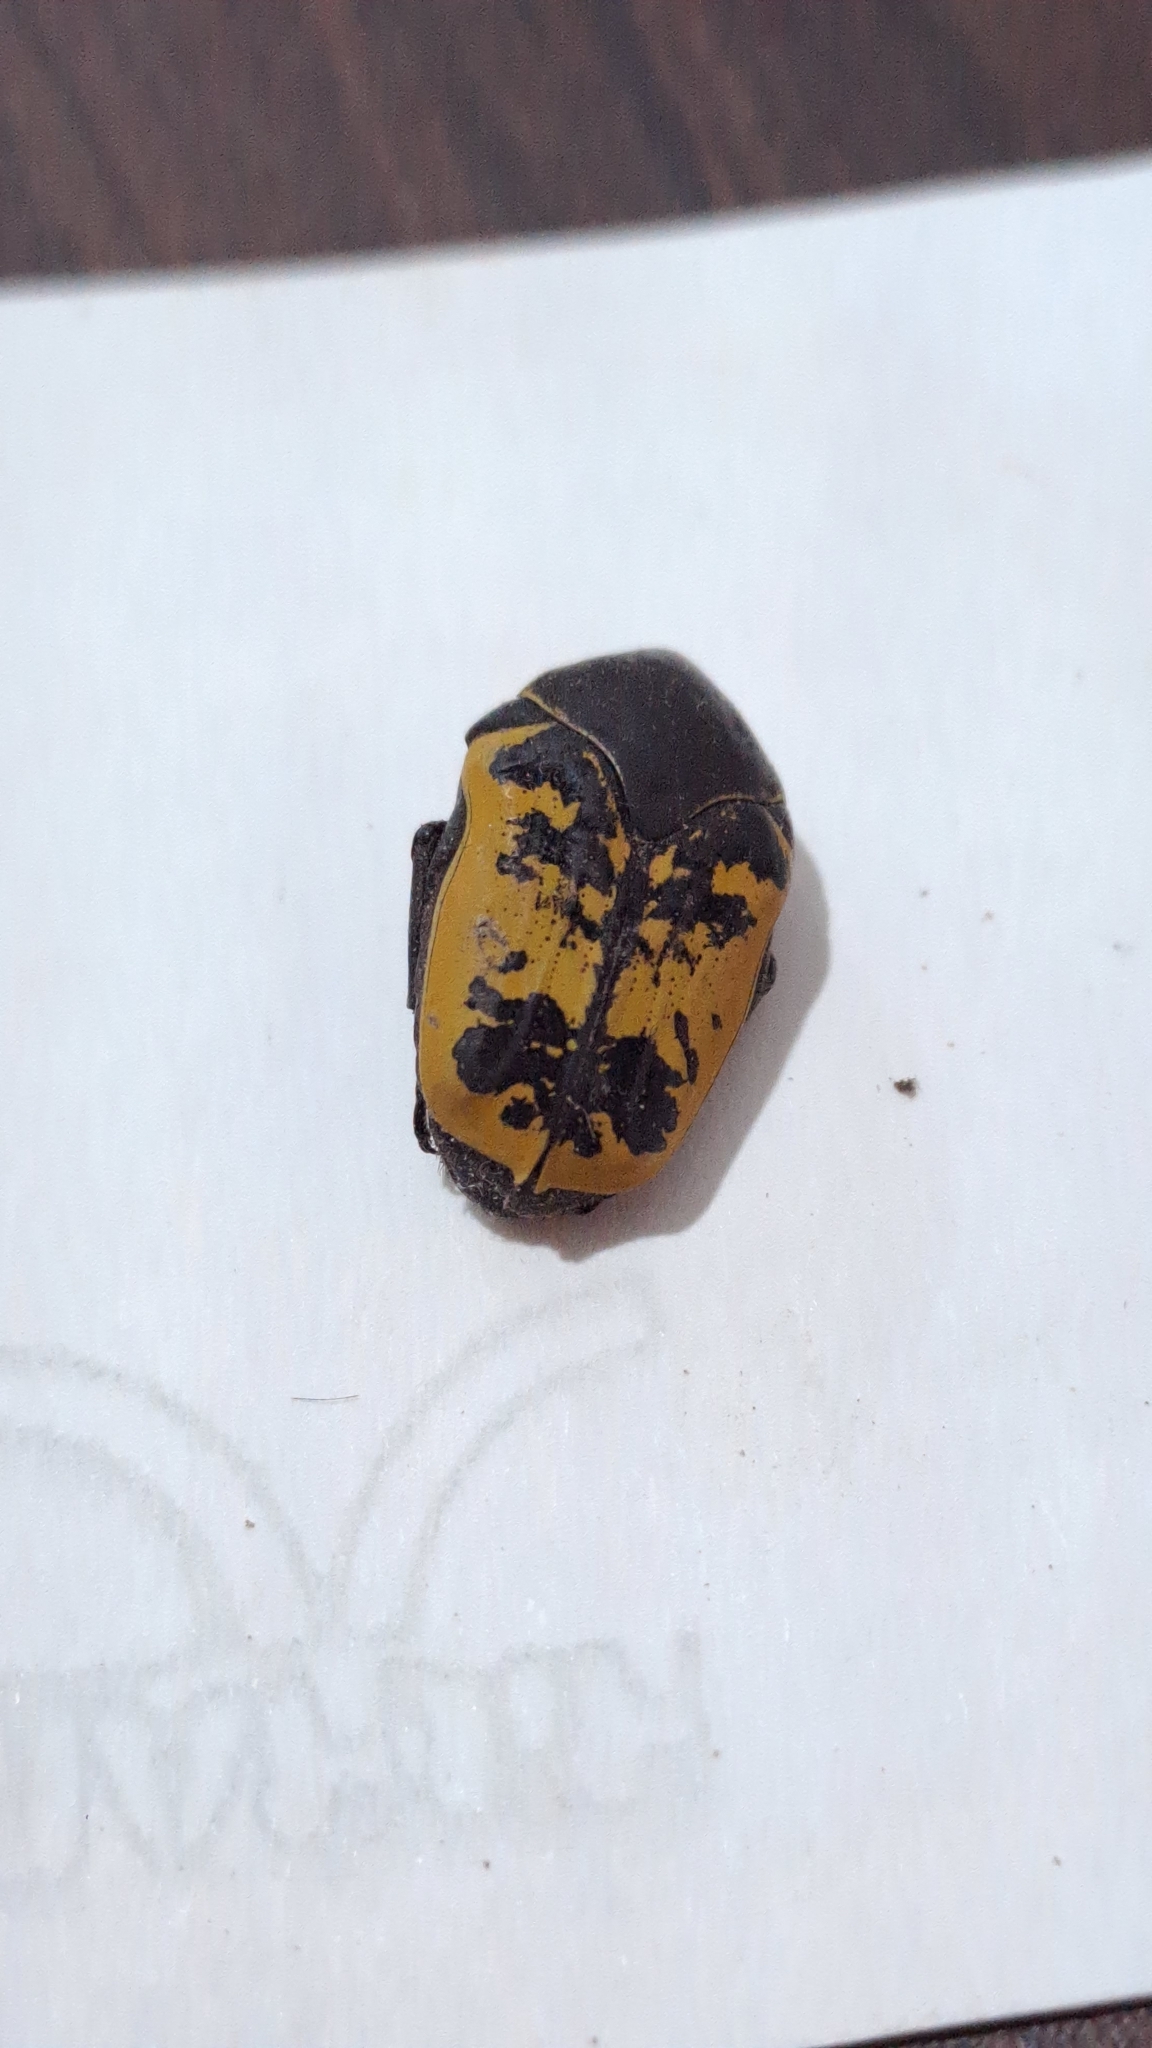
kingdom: Animalia
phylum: Arthropoda
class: Insecta
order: Coleoptera
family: Scarabaeidae
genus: Gymnetis
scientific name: Gymnetis merops
